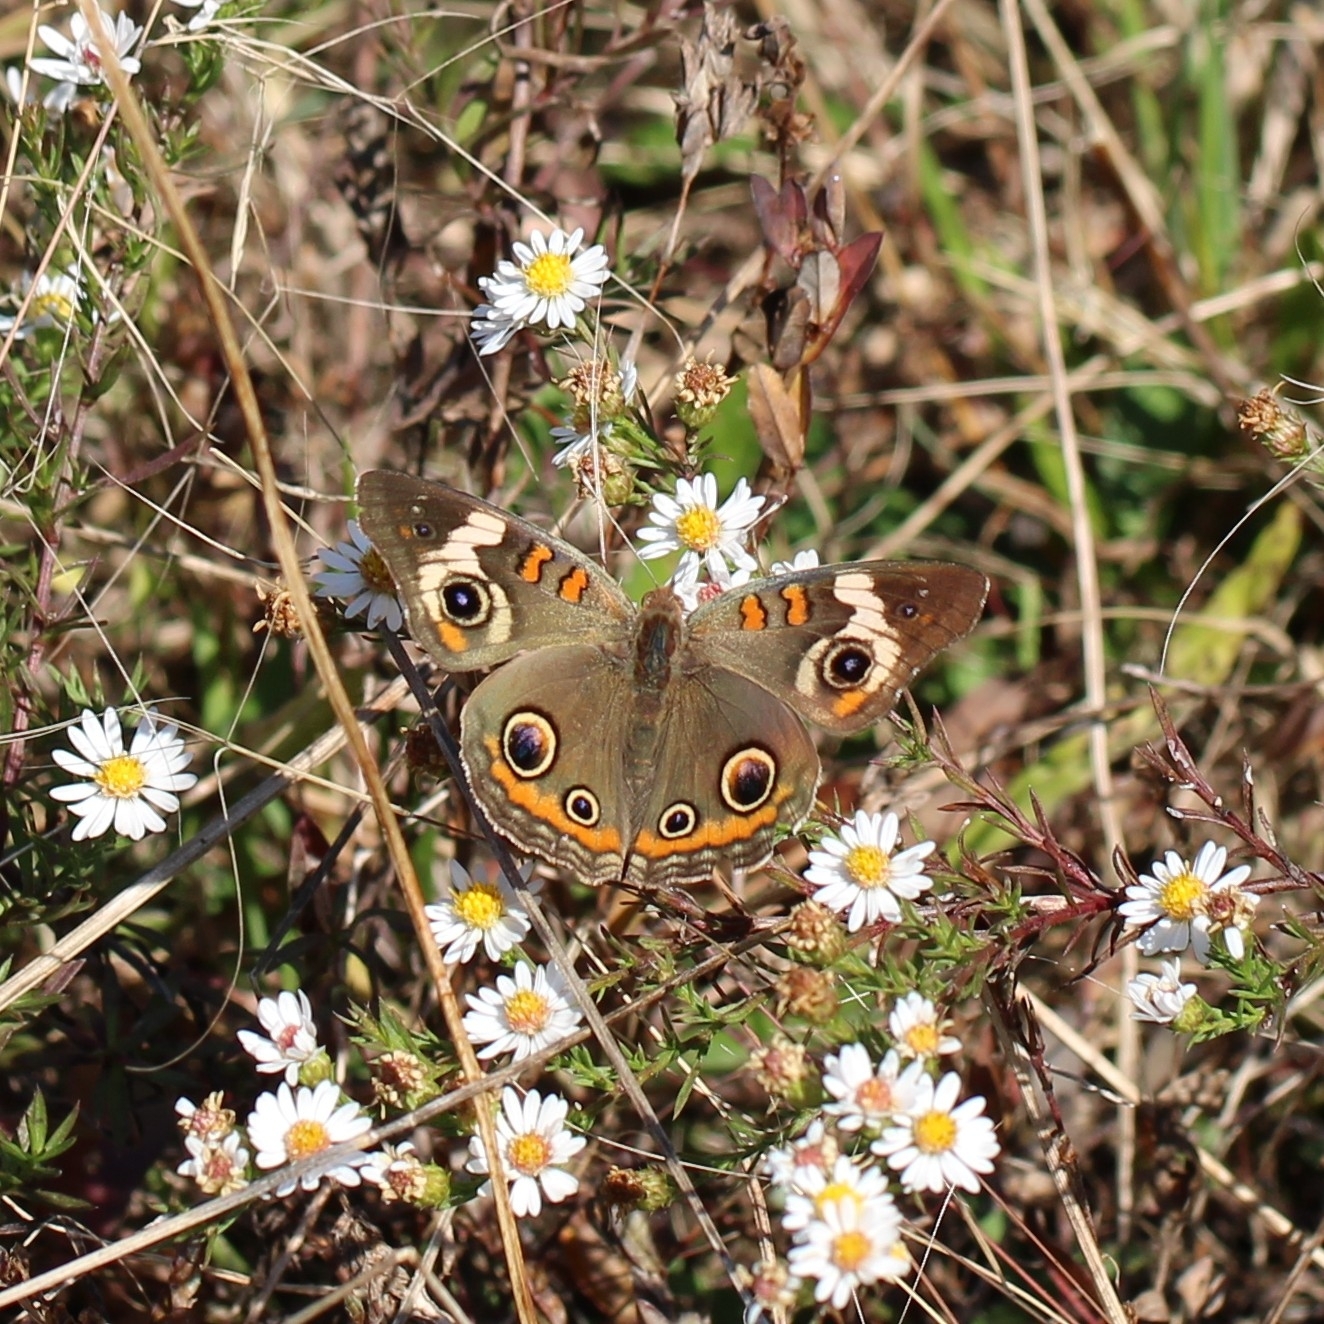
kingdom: Animalia
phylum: Arthropoda
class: Insecta
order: Lepidoptera
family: Nymphalidae
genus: Junonia
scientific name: Junonia coenia
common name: Common buckeye
